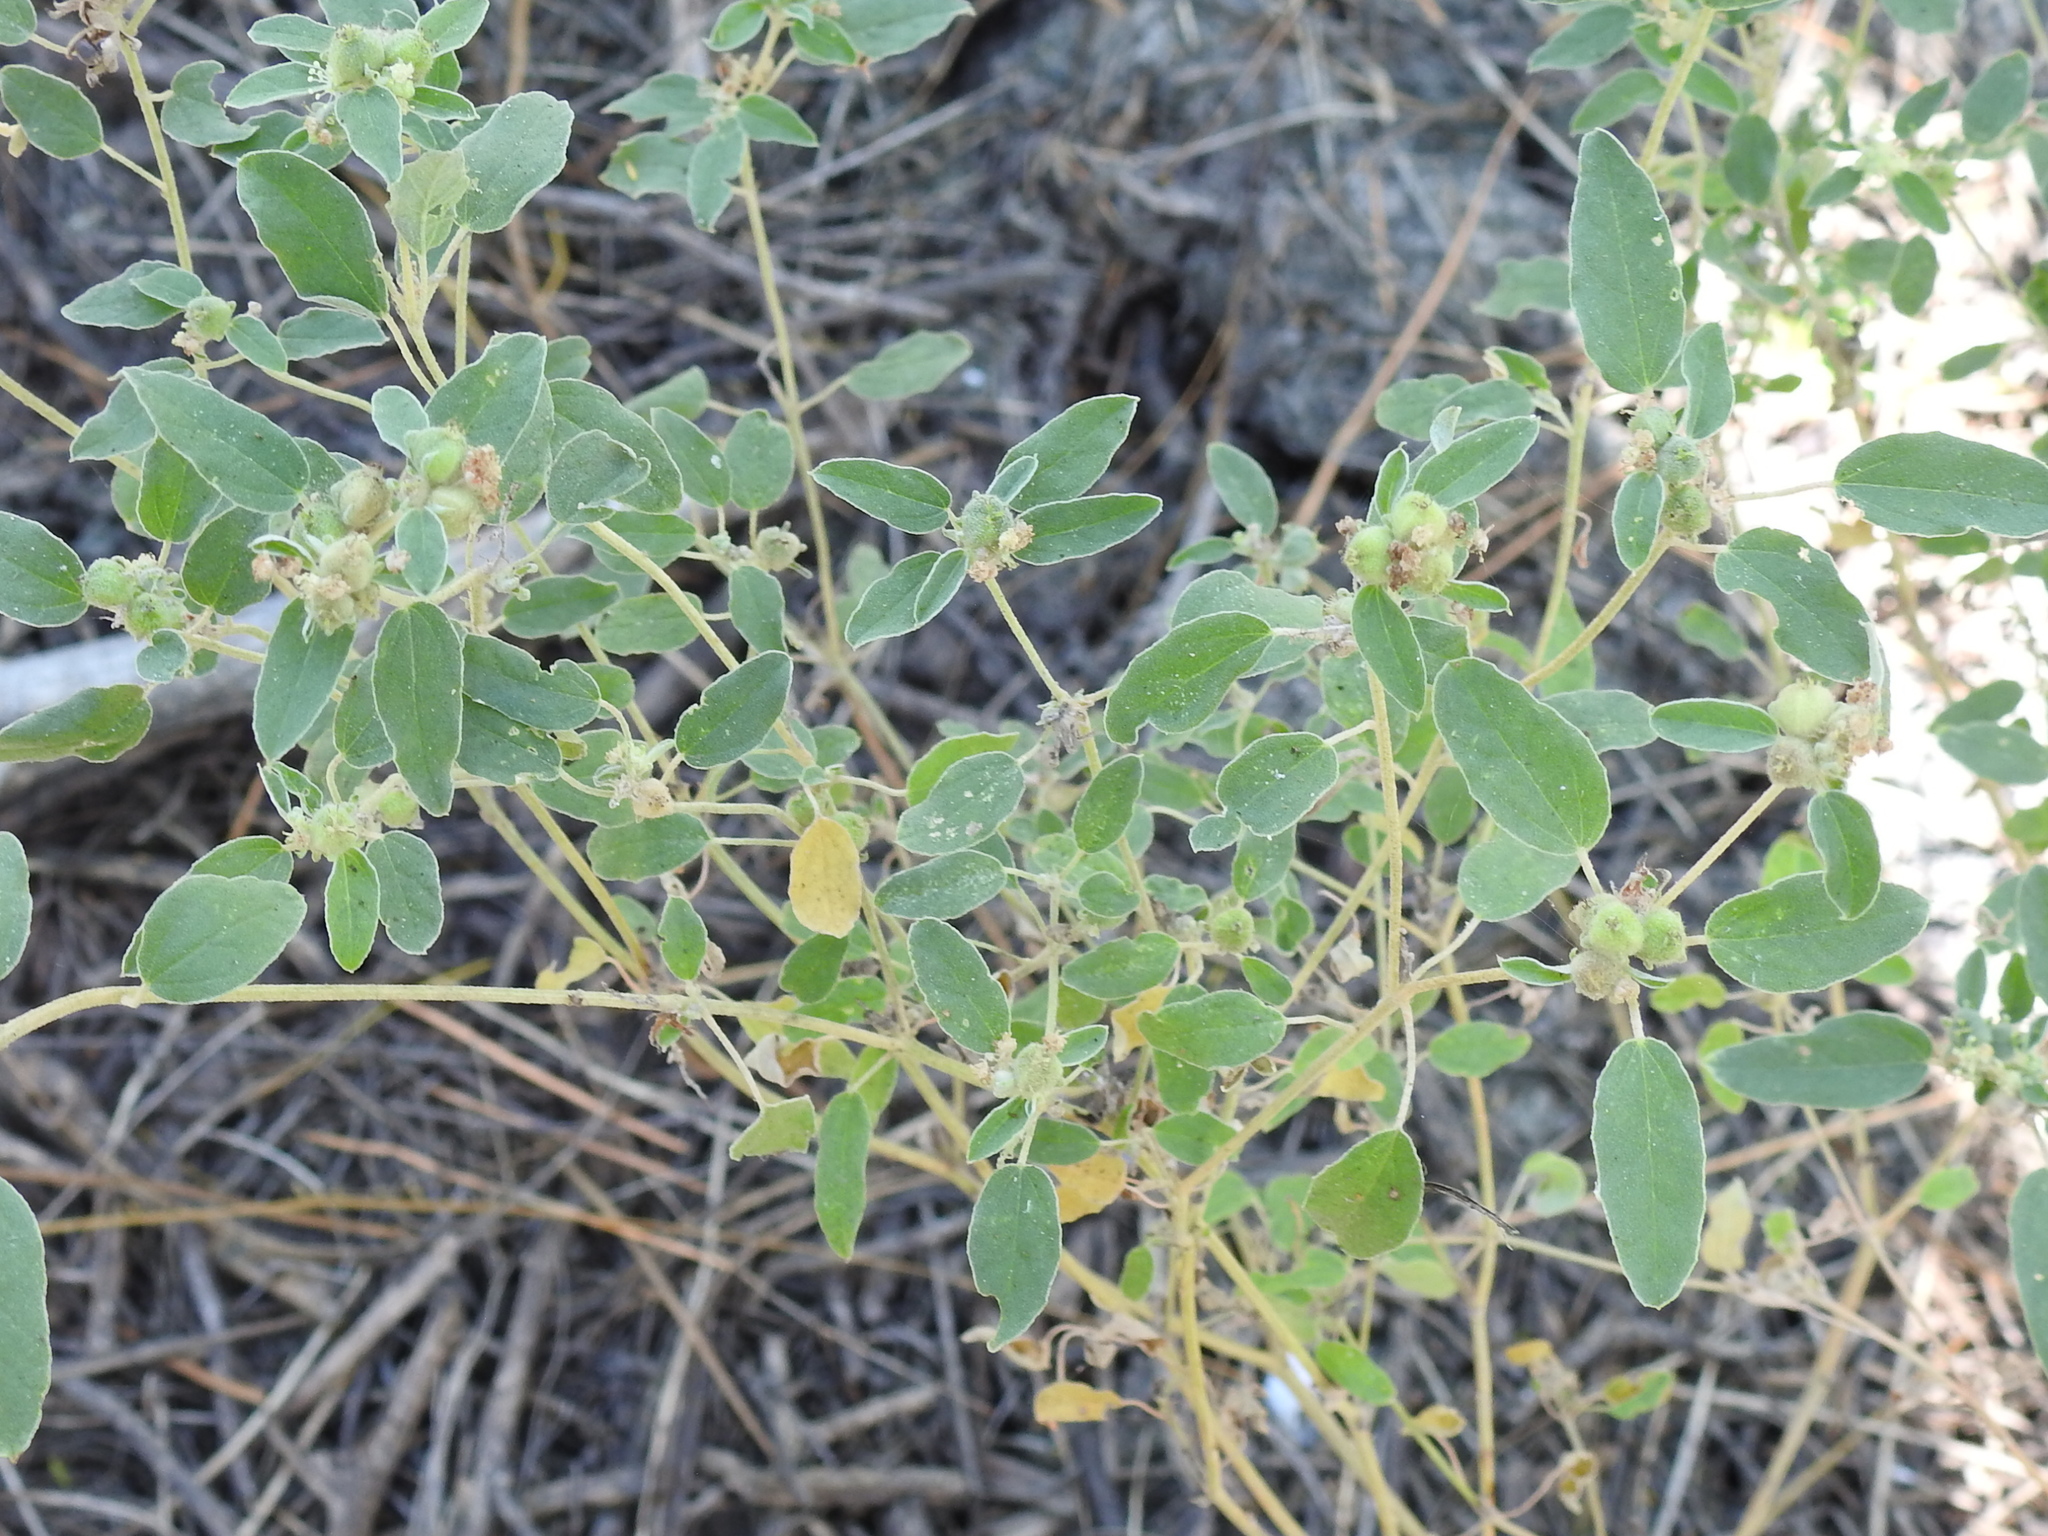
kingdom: Plantae
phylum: Tracheophyta
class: Magnoliopsida
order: Malpighiales
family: Euphorbiaceae
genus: Croton
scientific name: Croton leucophyllus
